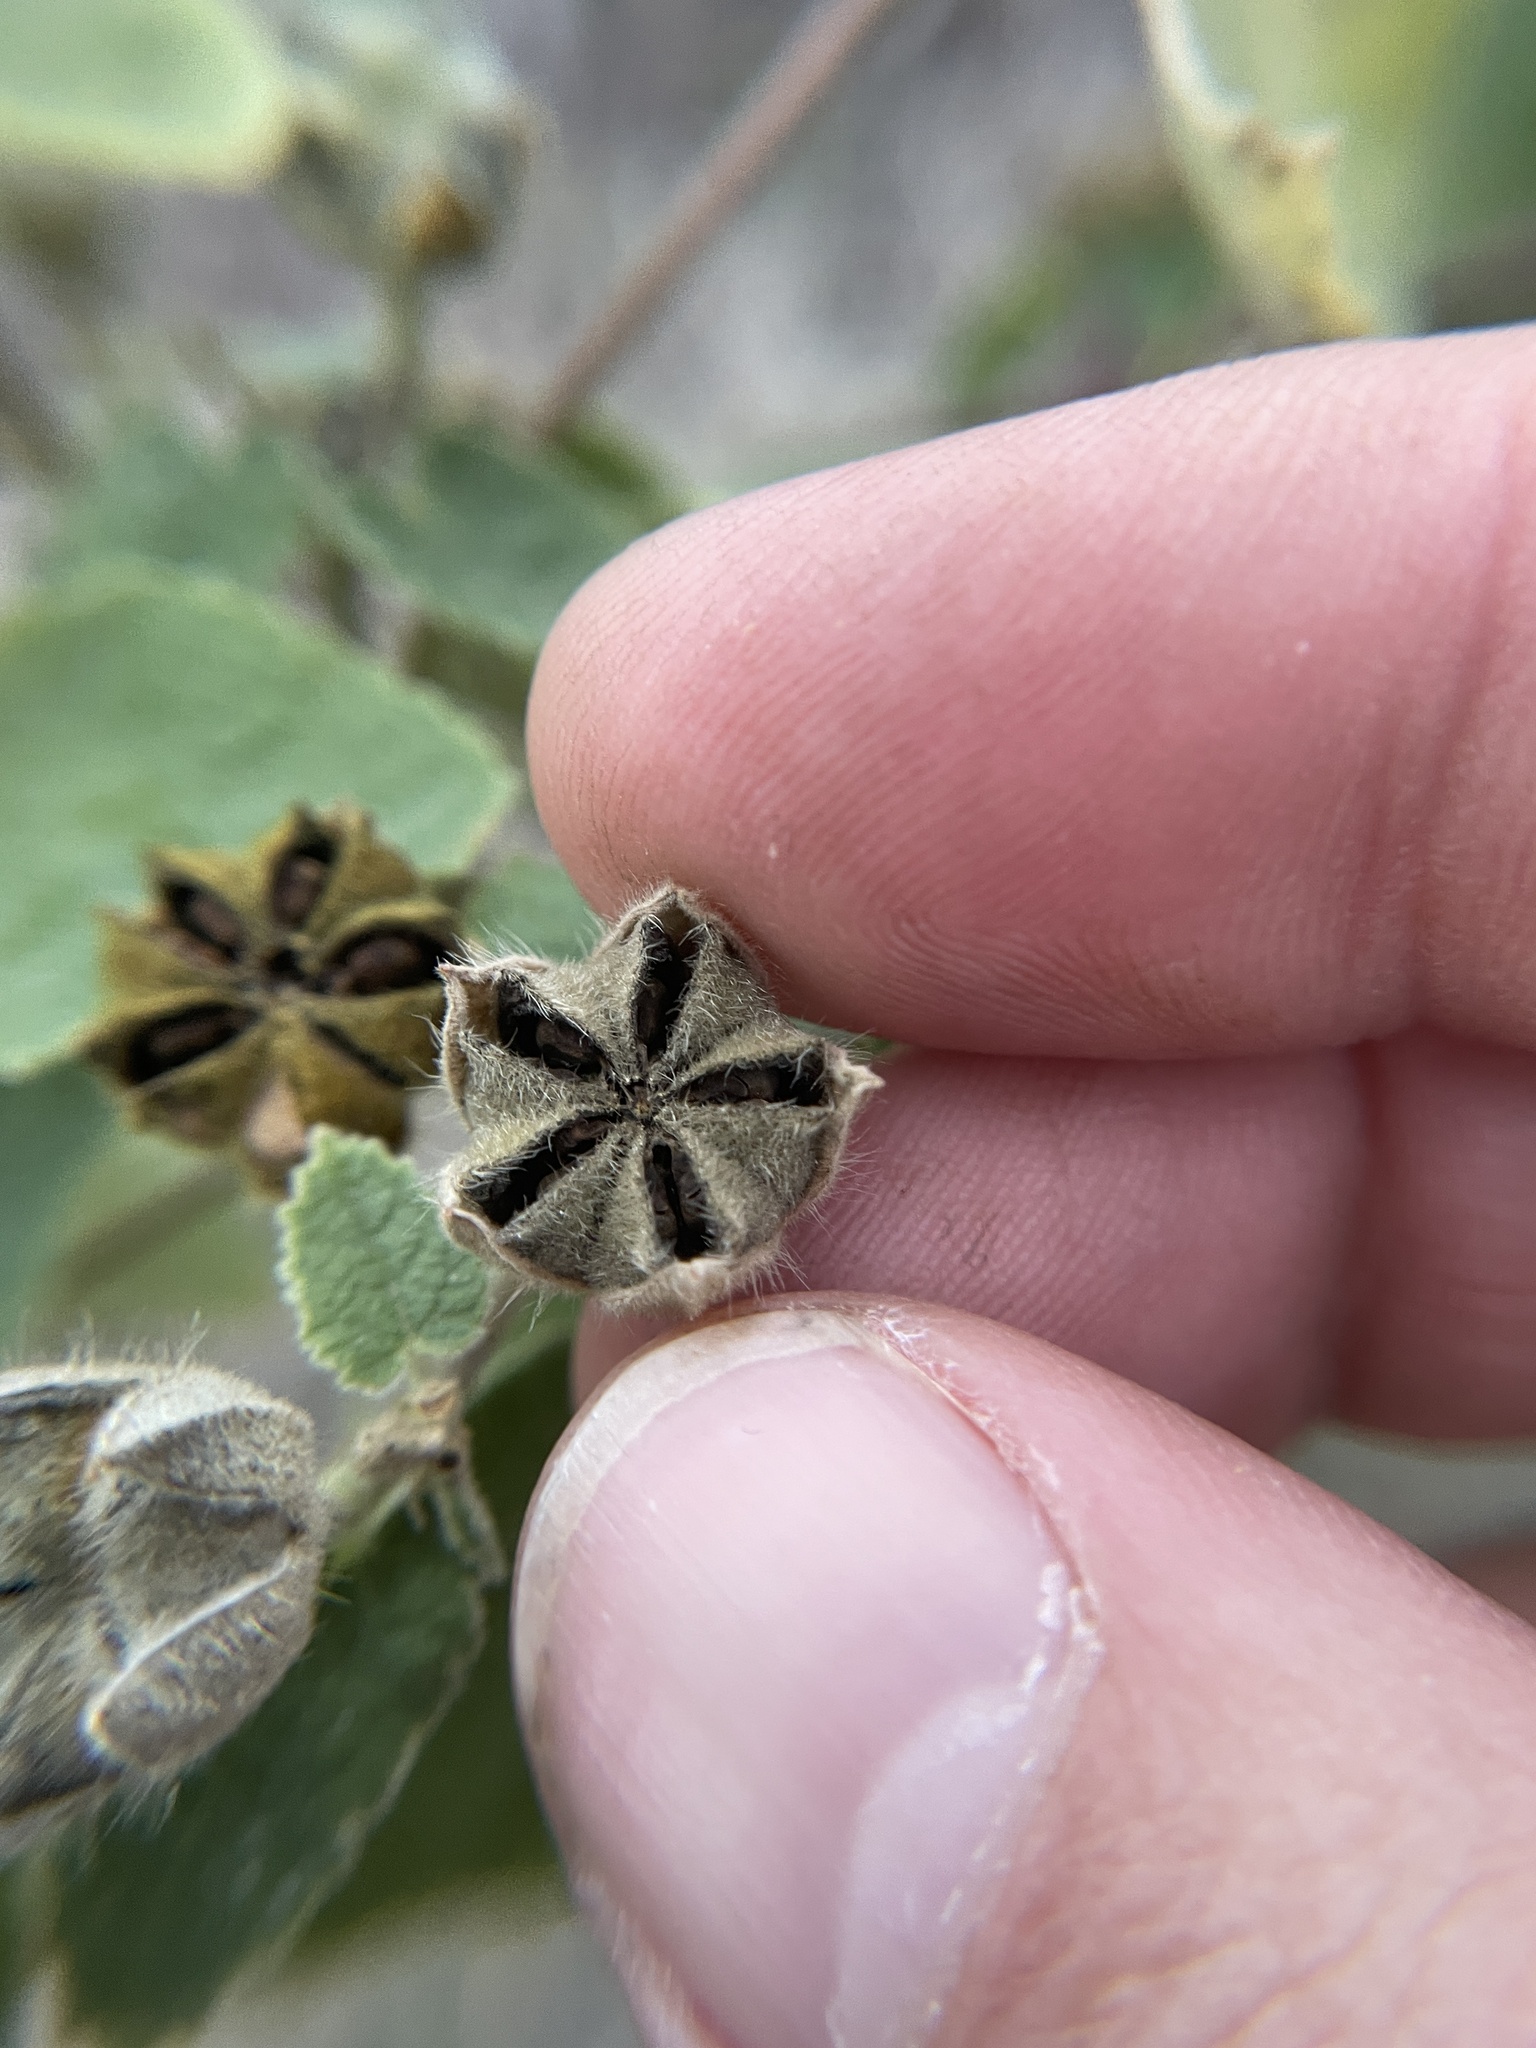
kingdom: Plantae
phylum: Tracheophyta
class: Magnoliopsida
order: Malvales
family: Malvaceae
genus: Allowissadula
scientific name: Allowissadula lozanoi
